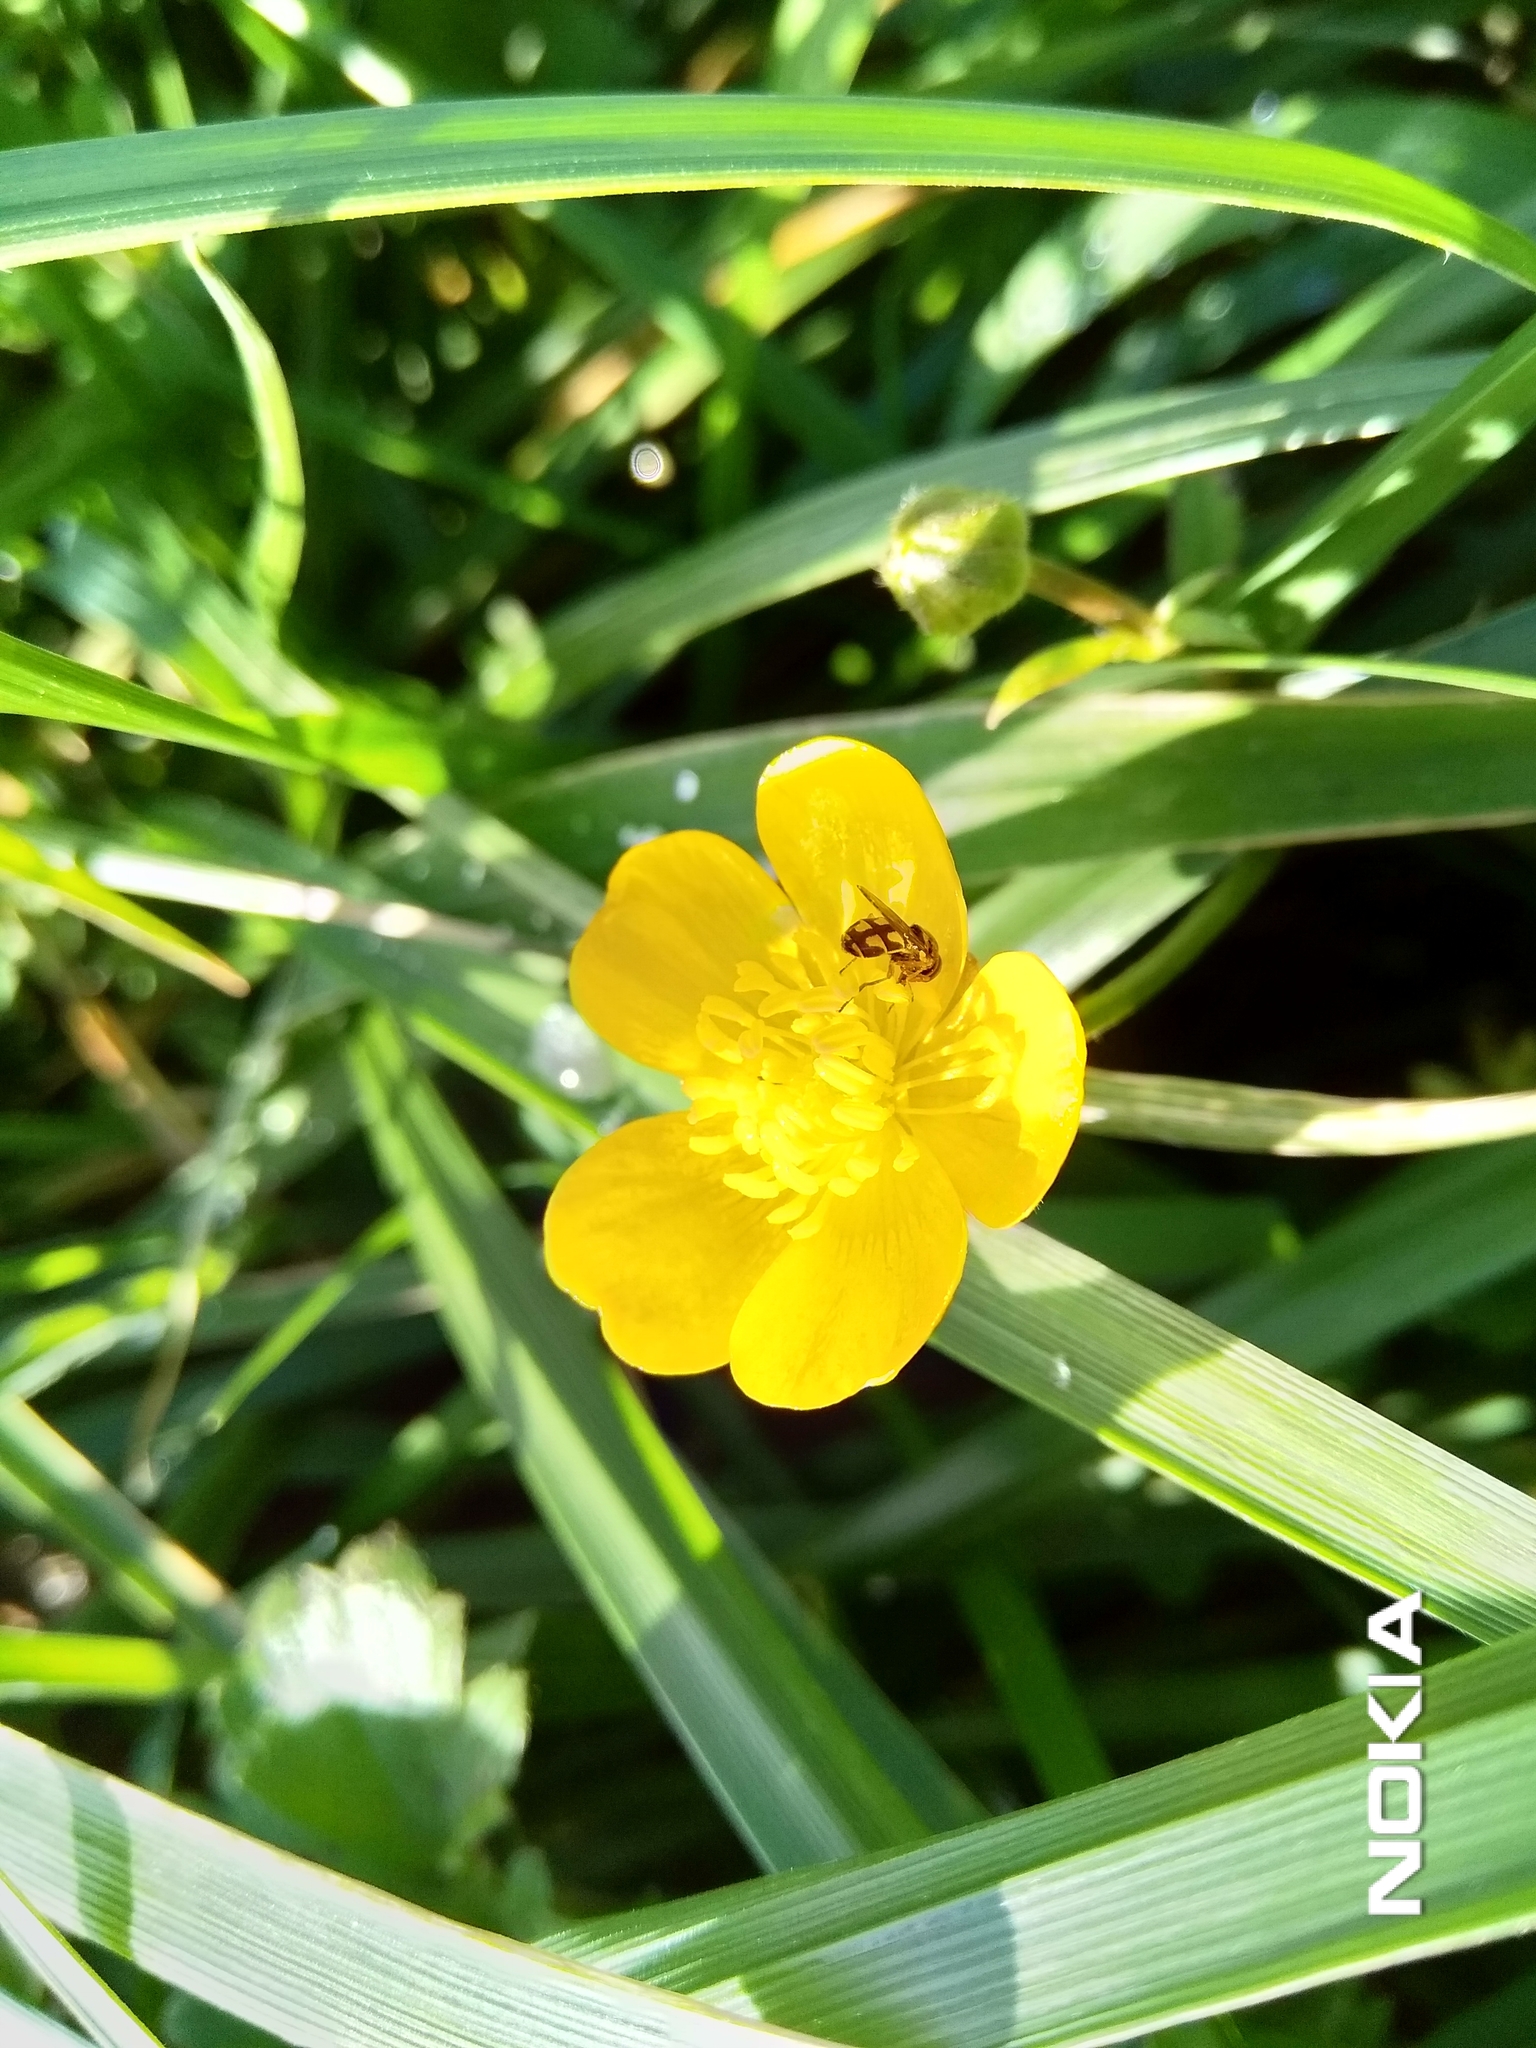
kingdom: Animalia
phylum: Arthropoda
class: Insecta
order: Diptera
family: Syrphidae
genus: Melanostoma
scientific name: Melanostoma fasciatum
